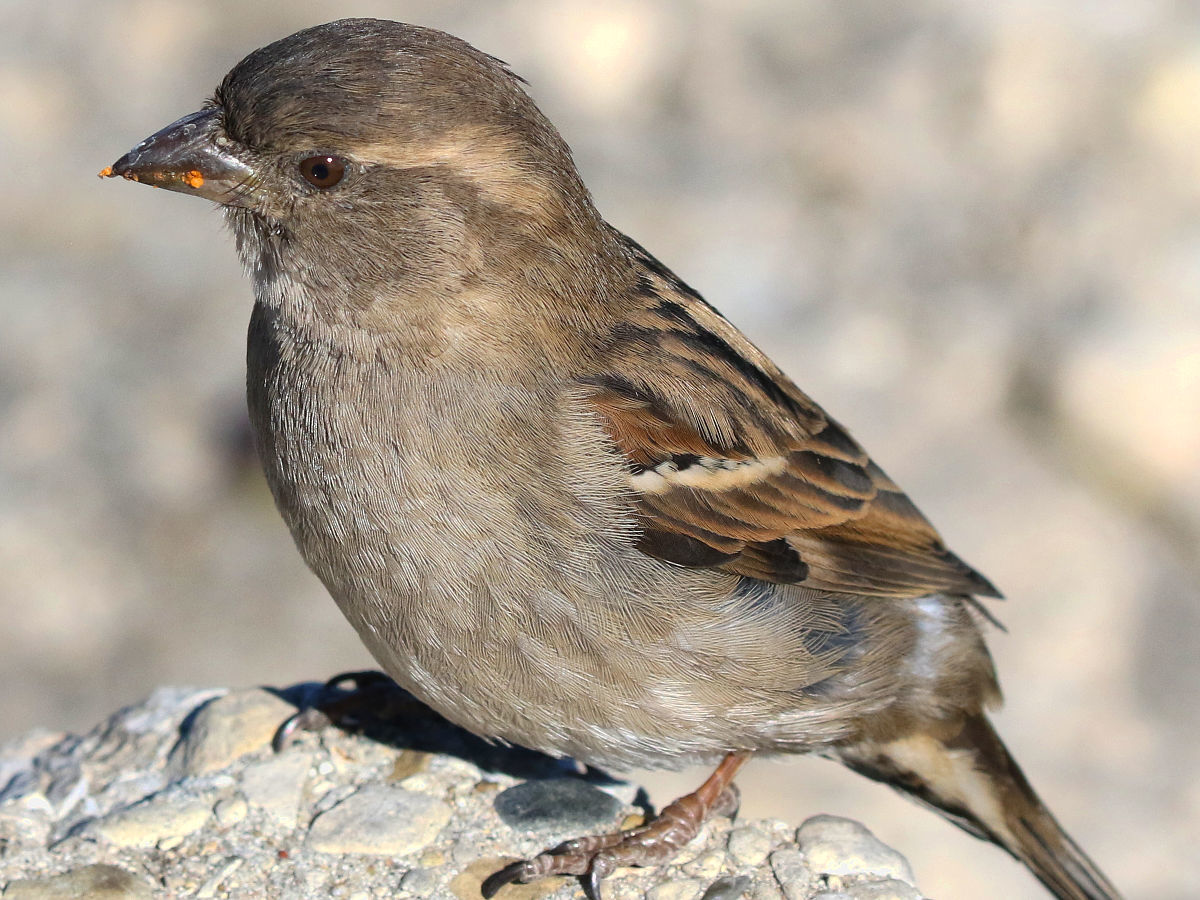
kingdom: Animalia
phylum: Chordata
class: Aves
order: Passeriformes
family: Passeridae
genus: Passer
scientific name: Passer domesticus
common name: House sparrow
